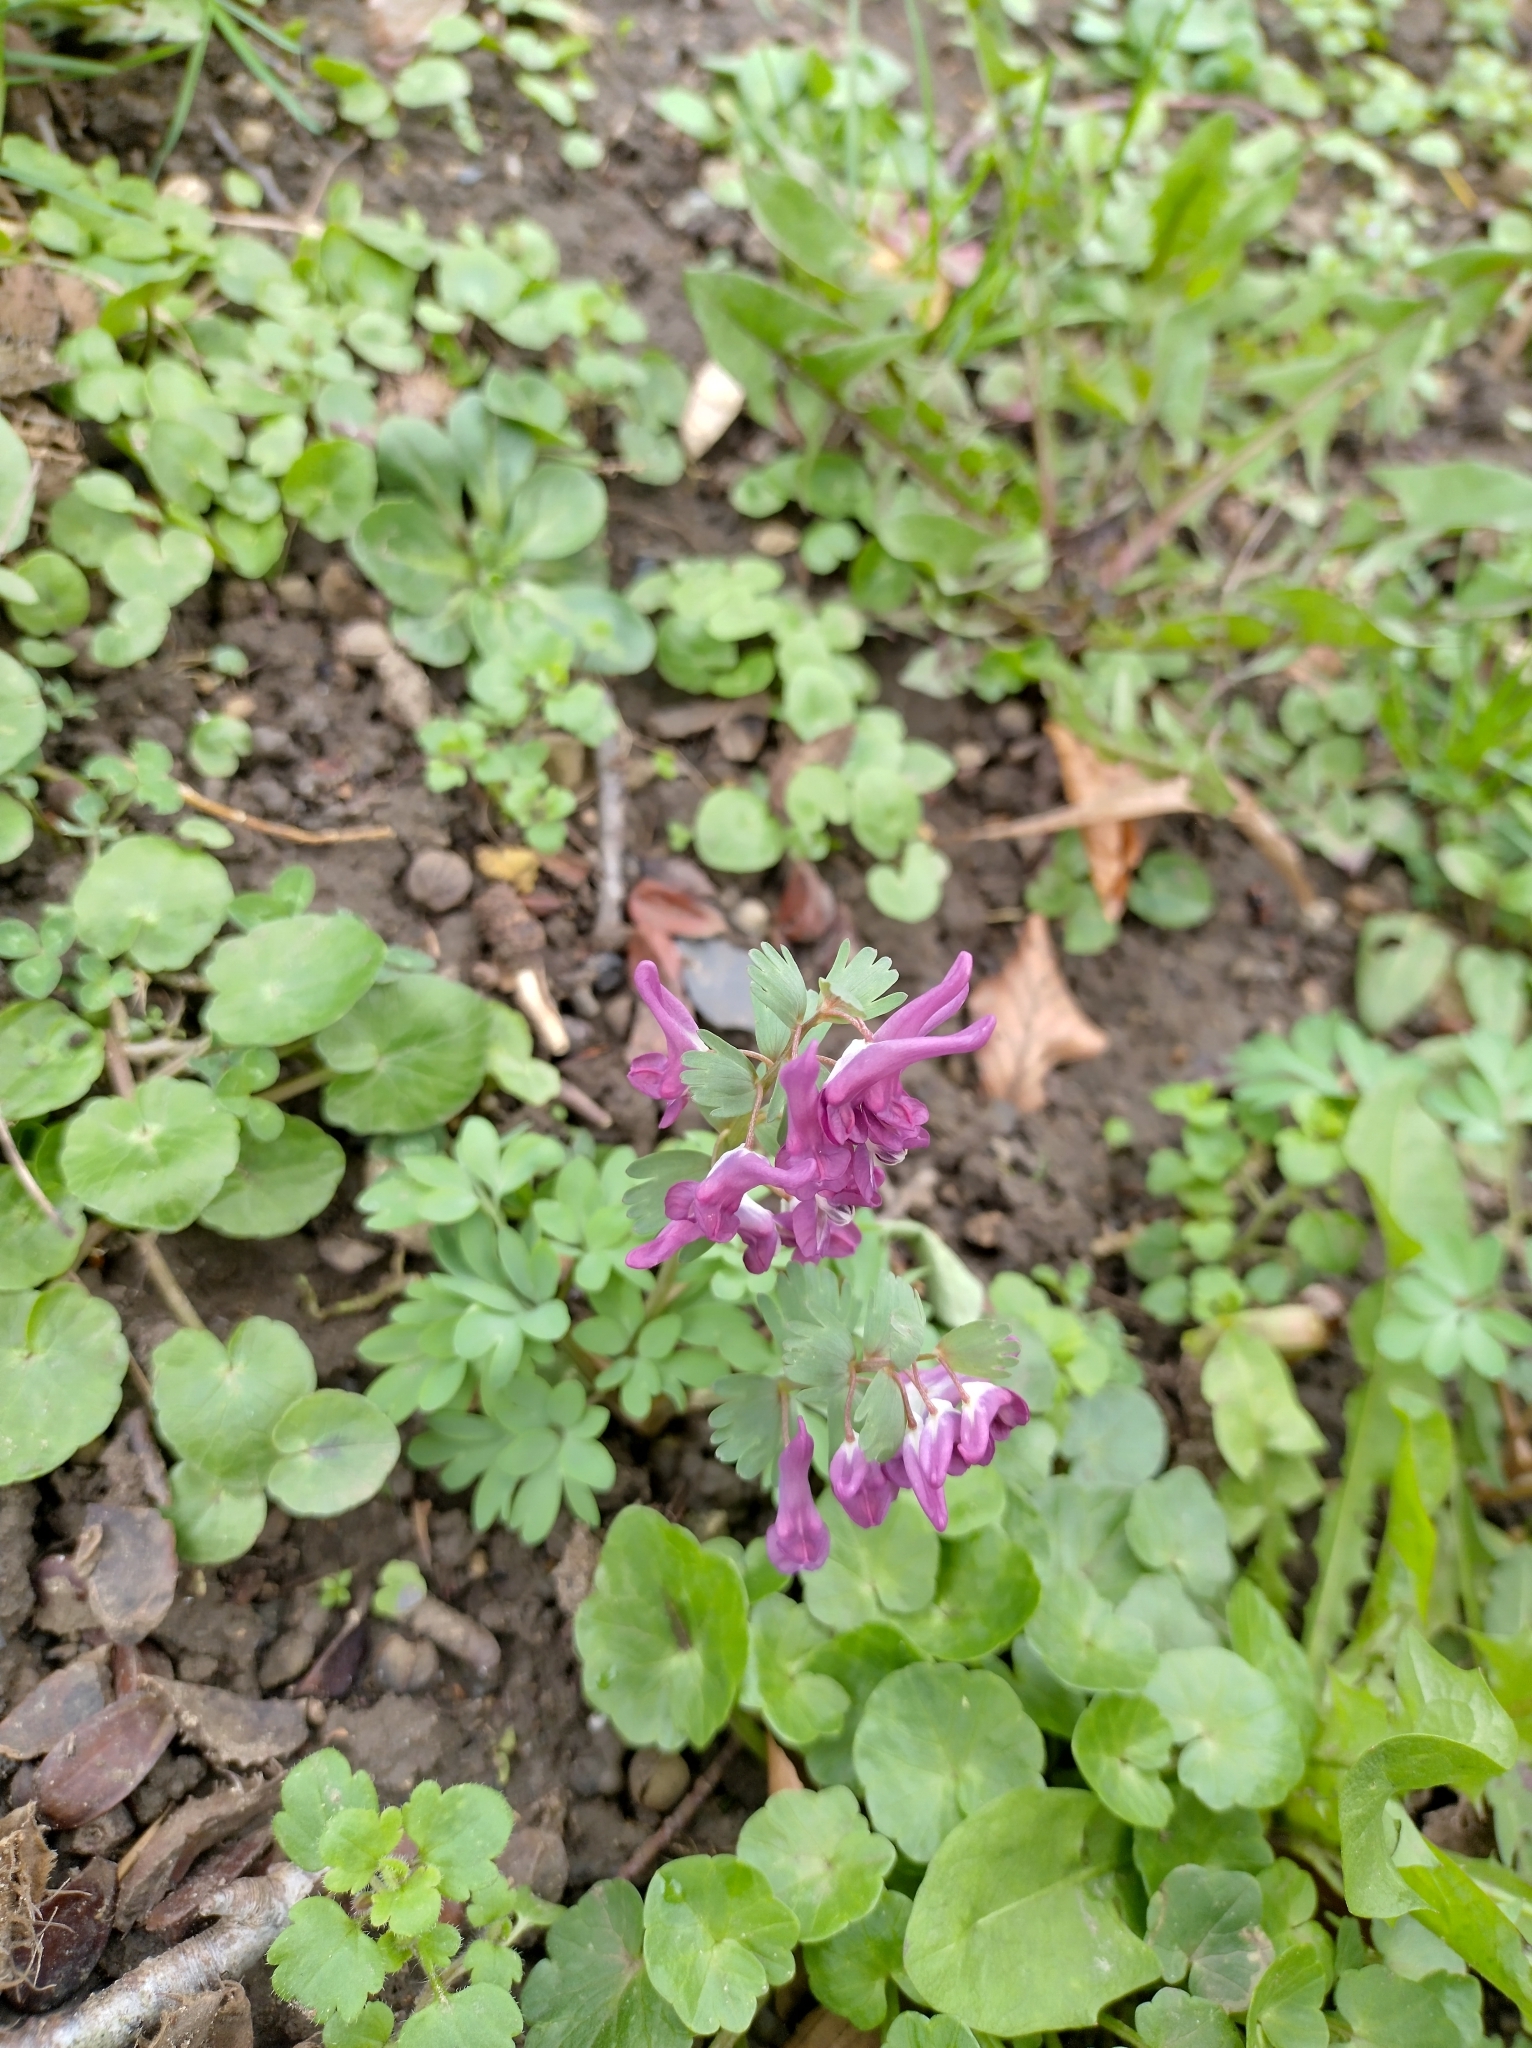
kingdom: Plantae
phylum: Tracheophyta
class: Magnoliopsida
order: Ranunculales
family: Papaveraceae
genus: Corydalis
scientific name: Corydalis solida
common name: Bird-in-a-bush
